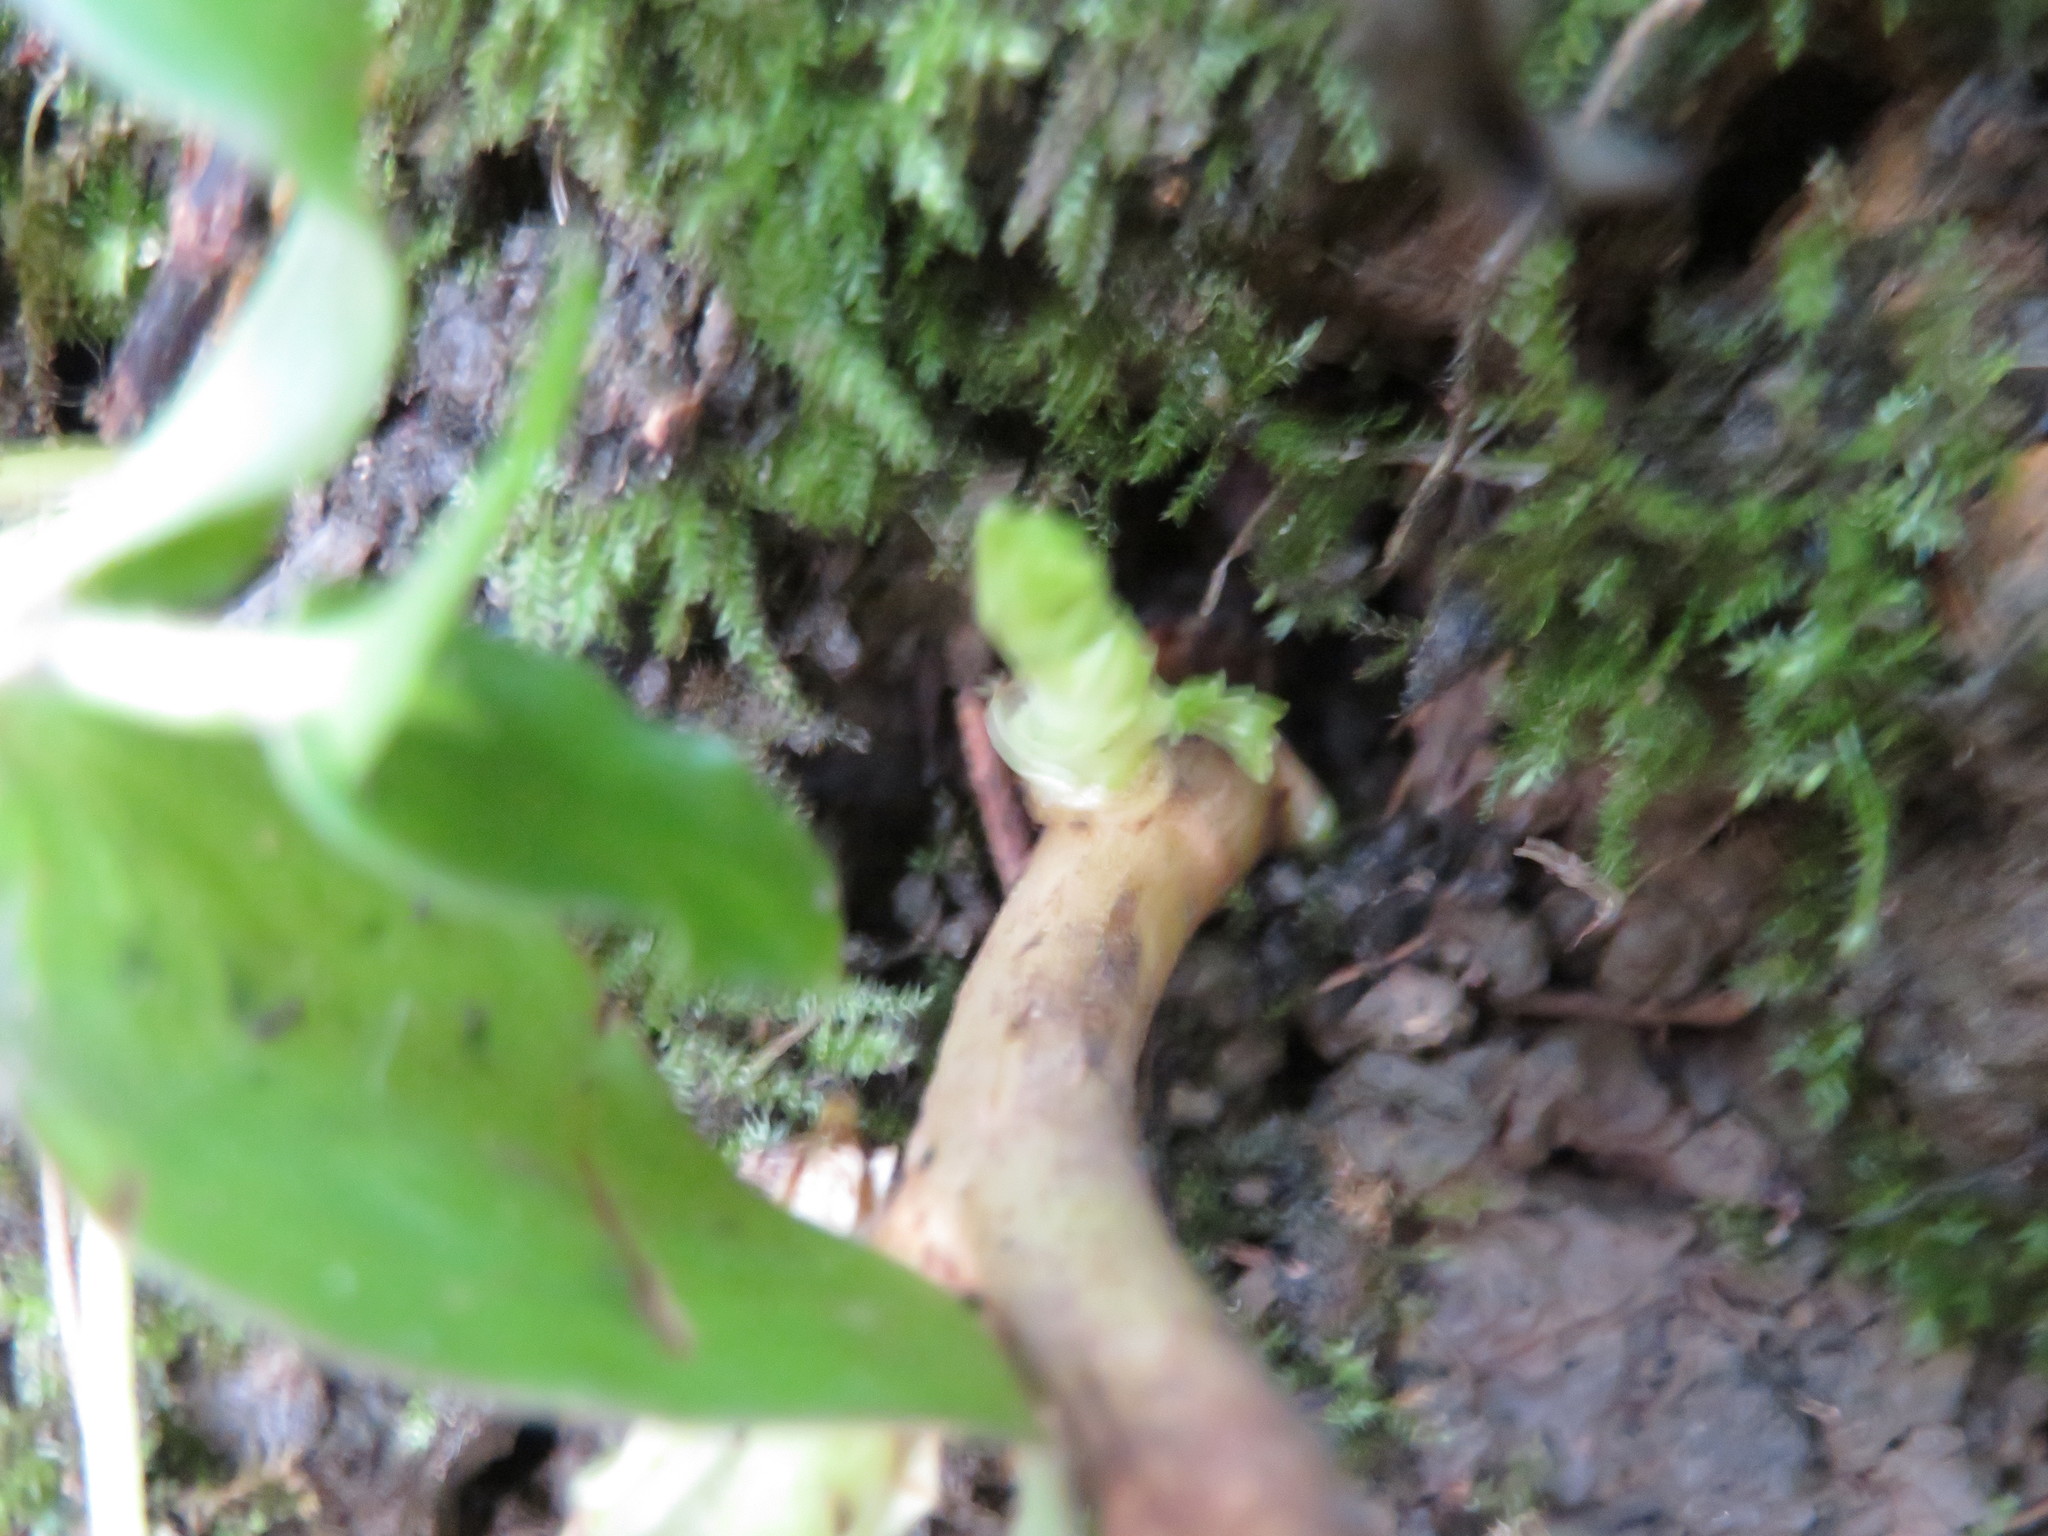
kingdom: Plantae
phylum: Tracheophyta
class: Magnoliopsida
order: Geraniales
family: Melianthaceae
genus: Melianthus
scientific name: Melianthus major
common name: Honey-flower
